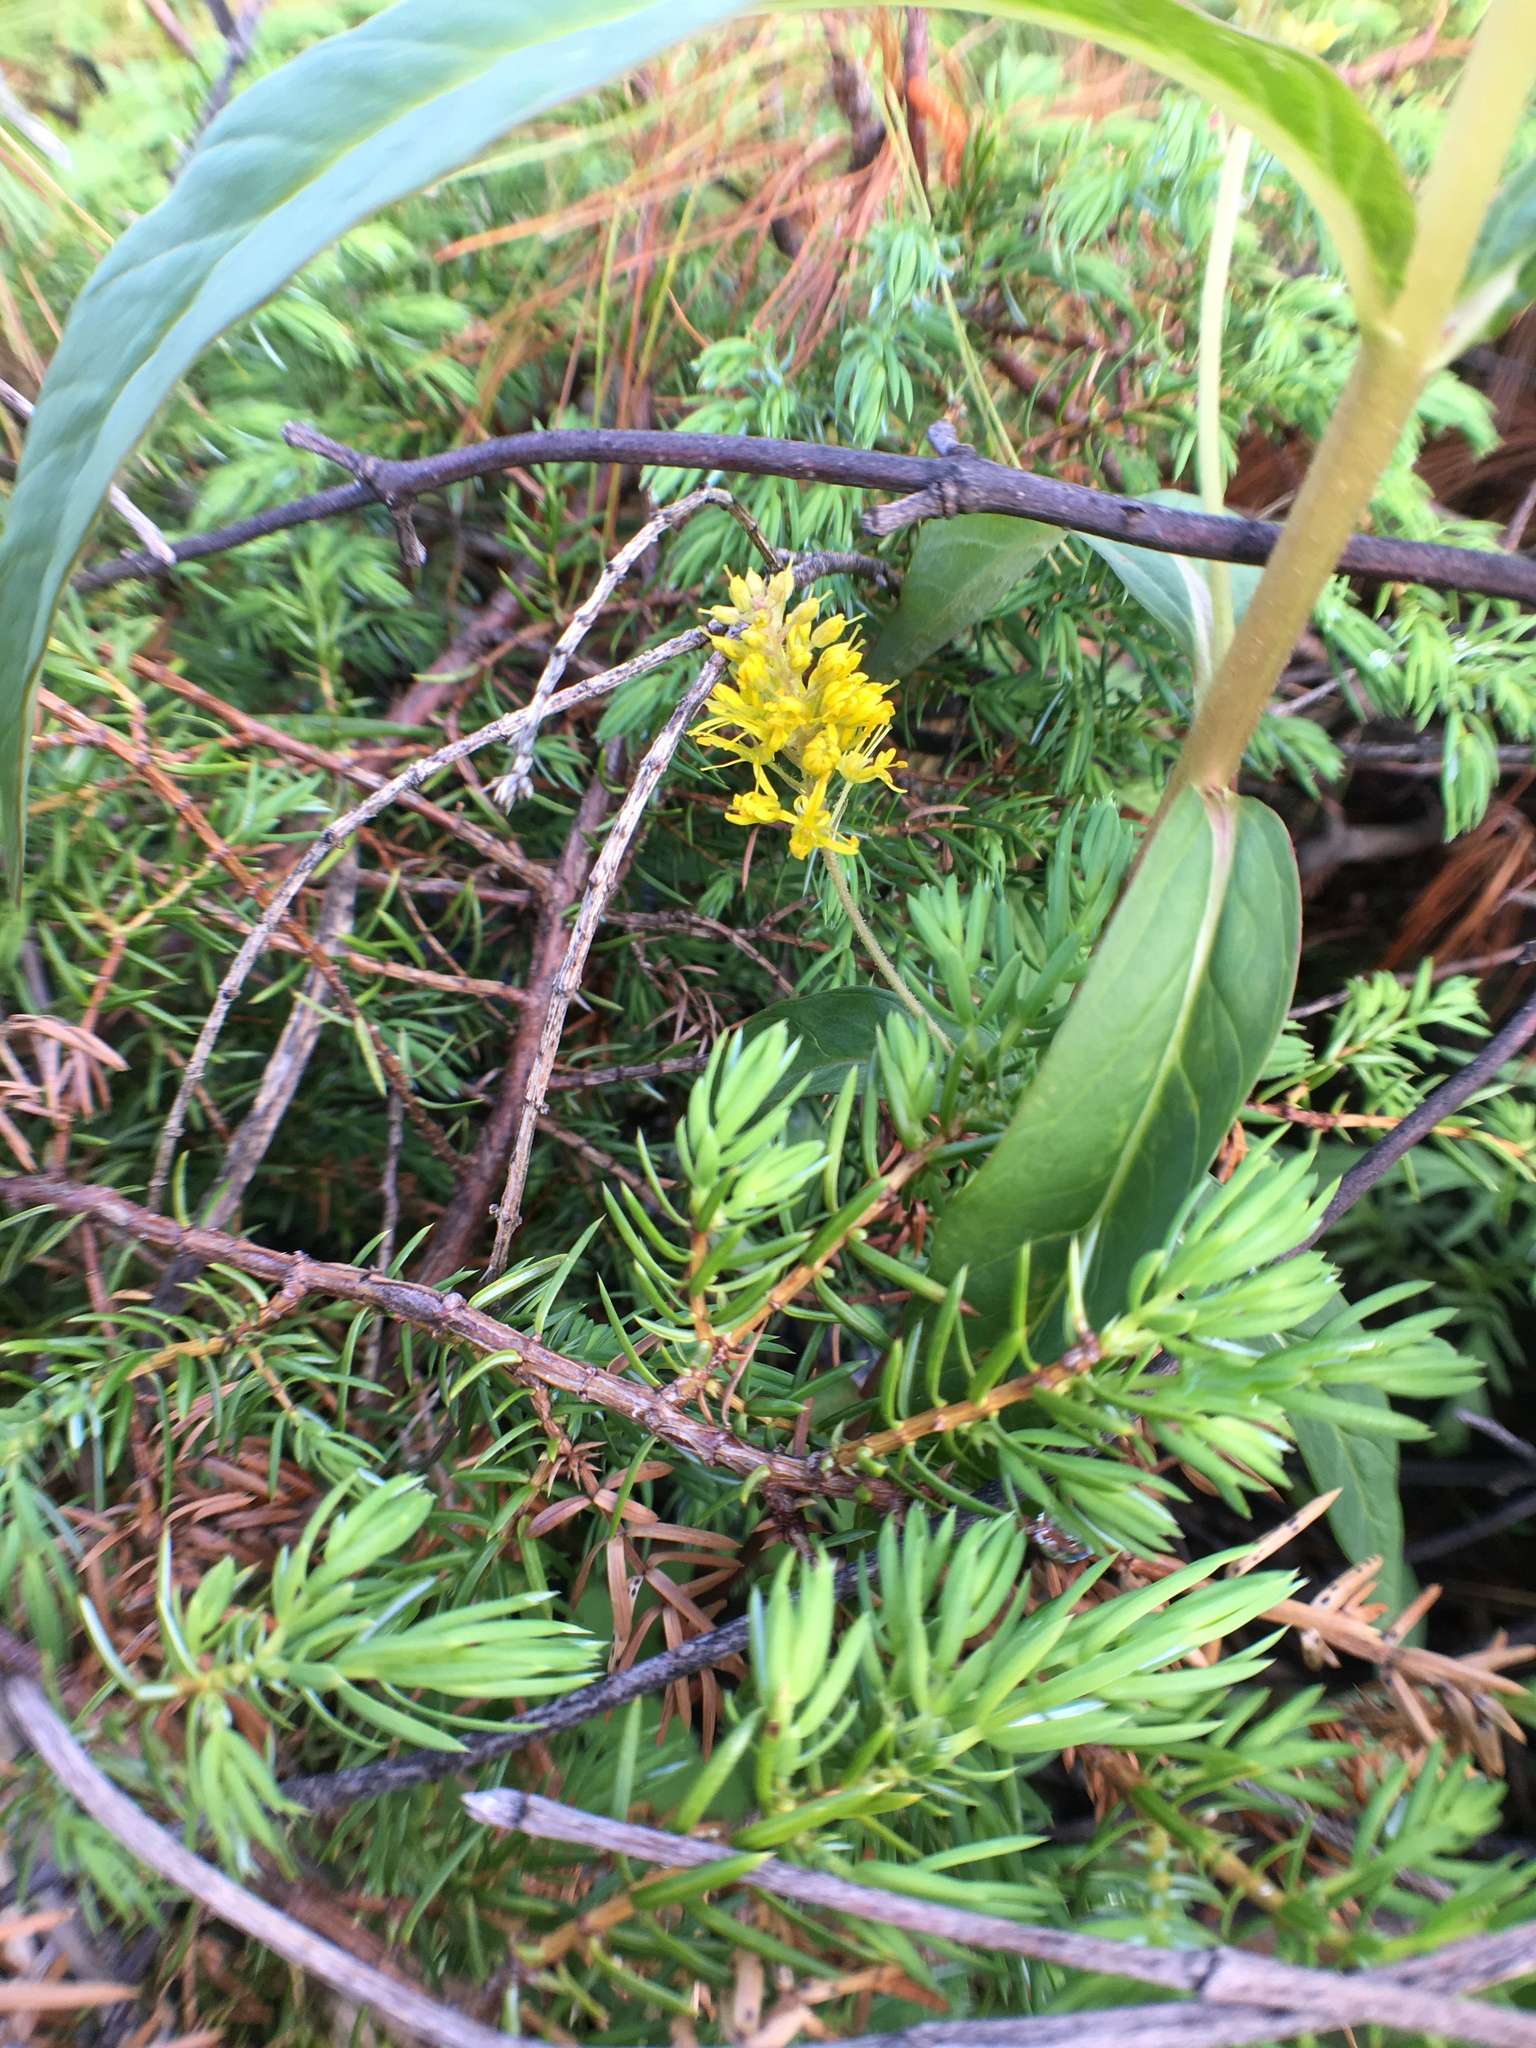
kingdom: Plantae
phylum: Tracheophyta
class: Magnoliopsida
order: Ericales
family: Primulaceae
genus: Lysimachia
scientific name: Lysimachia thyrsiflora
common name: Tufted loosestrife
